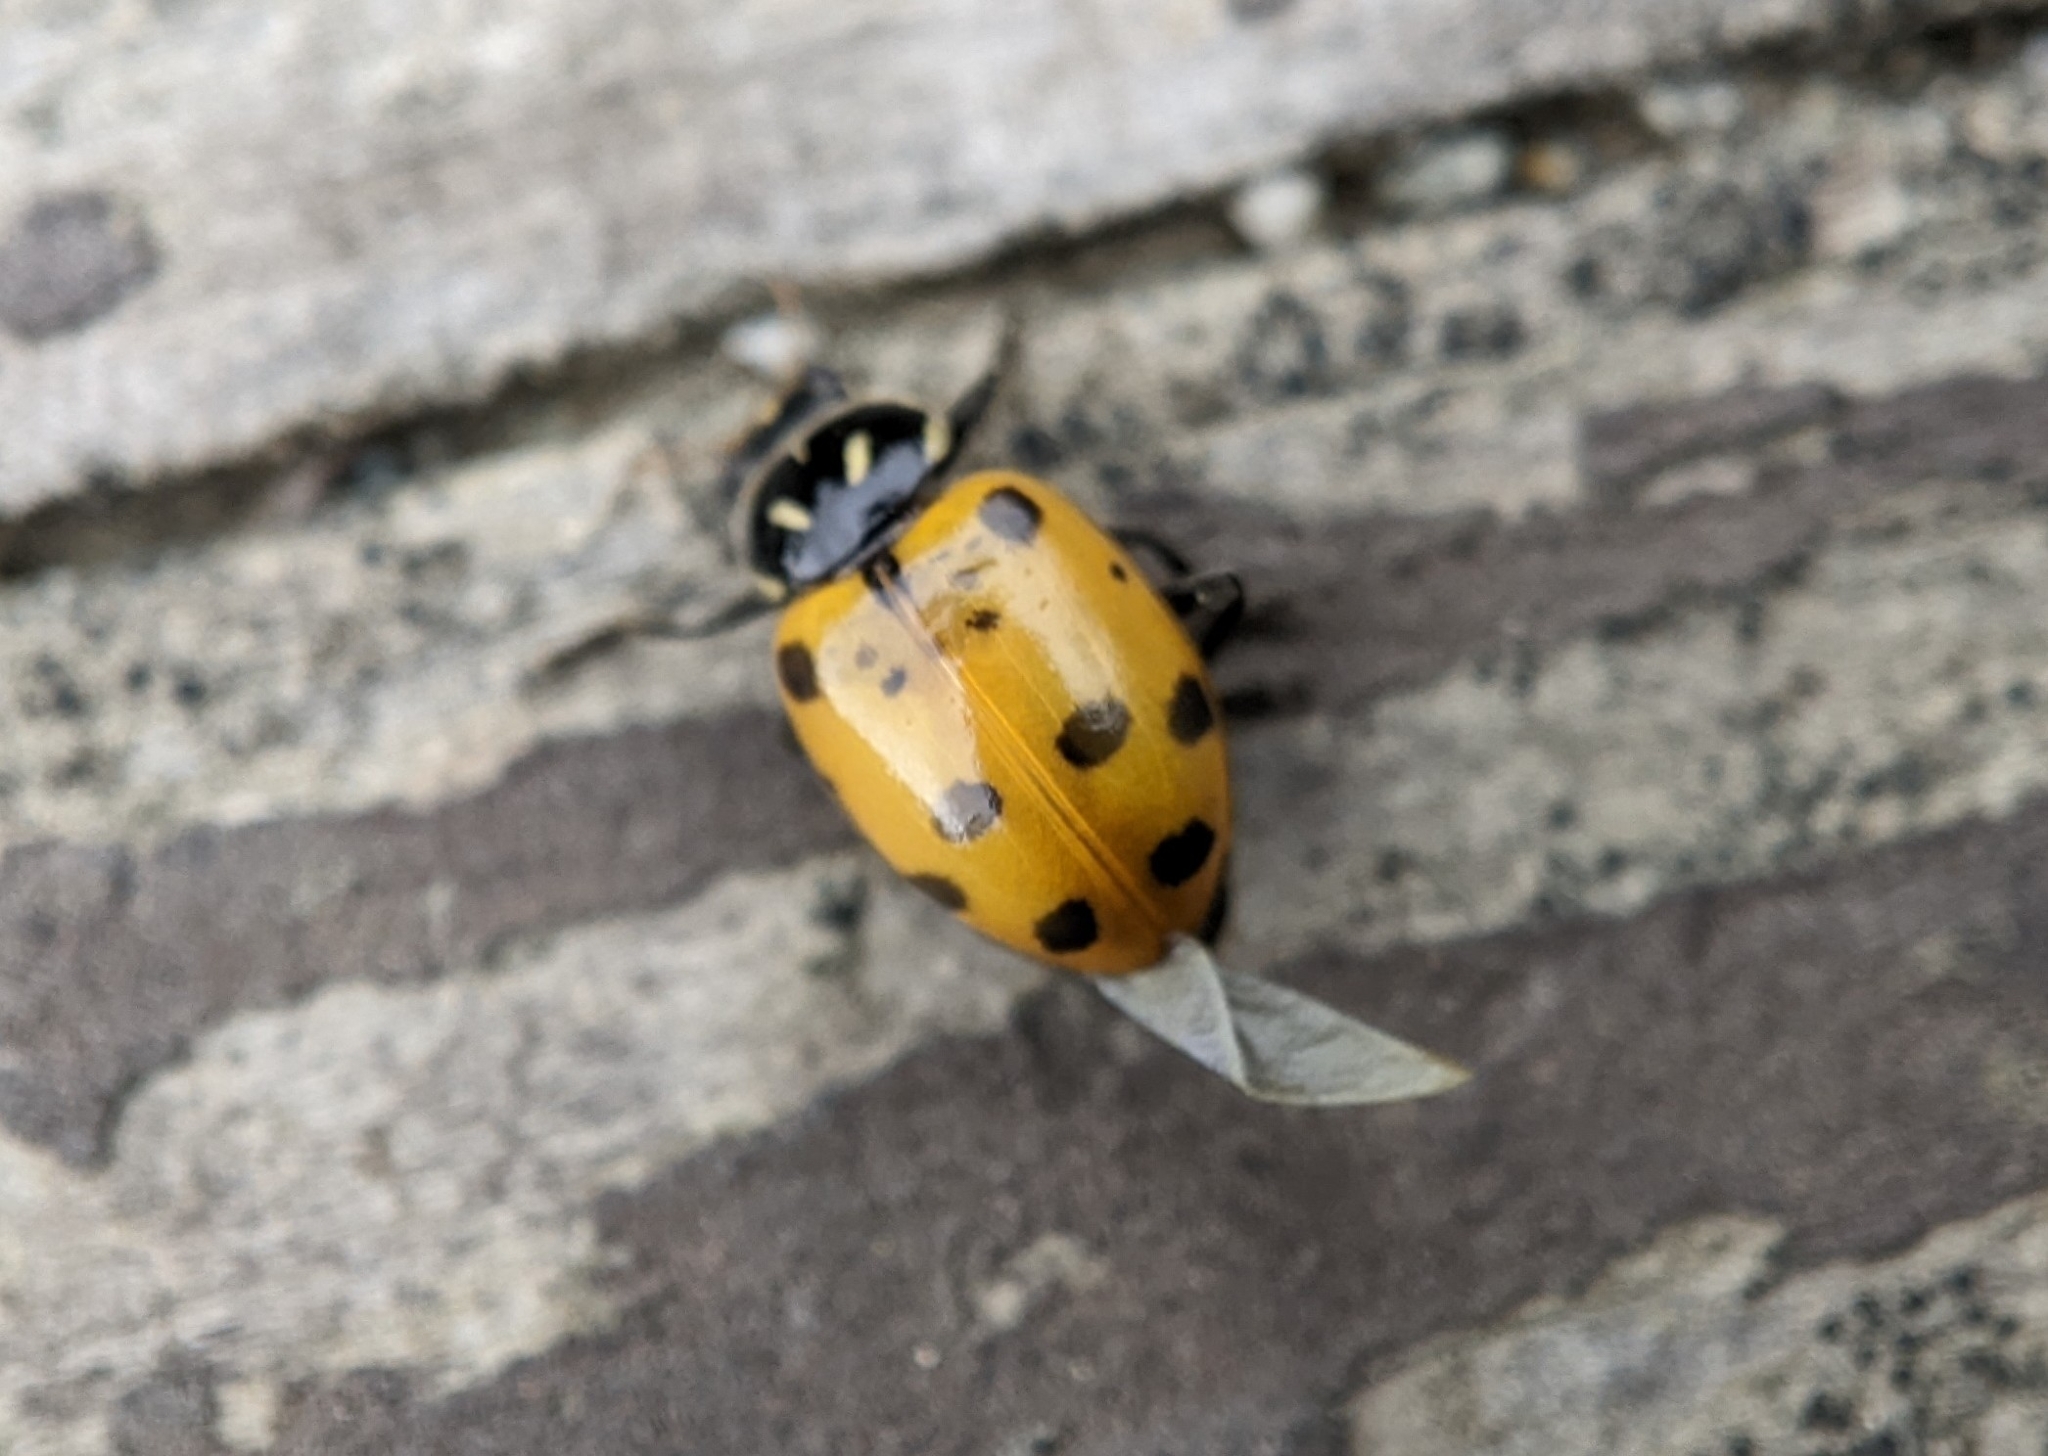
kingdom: Animalia
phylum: Arthropoda
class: Insecta
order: Coleoptera
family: Coccinellidae
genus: Hippodamia
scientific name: Hippodamia convergens
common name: Convergent lady beetle
